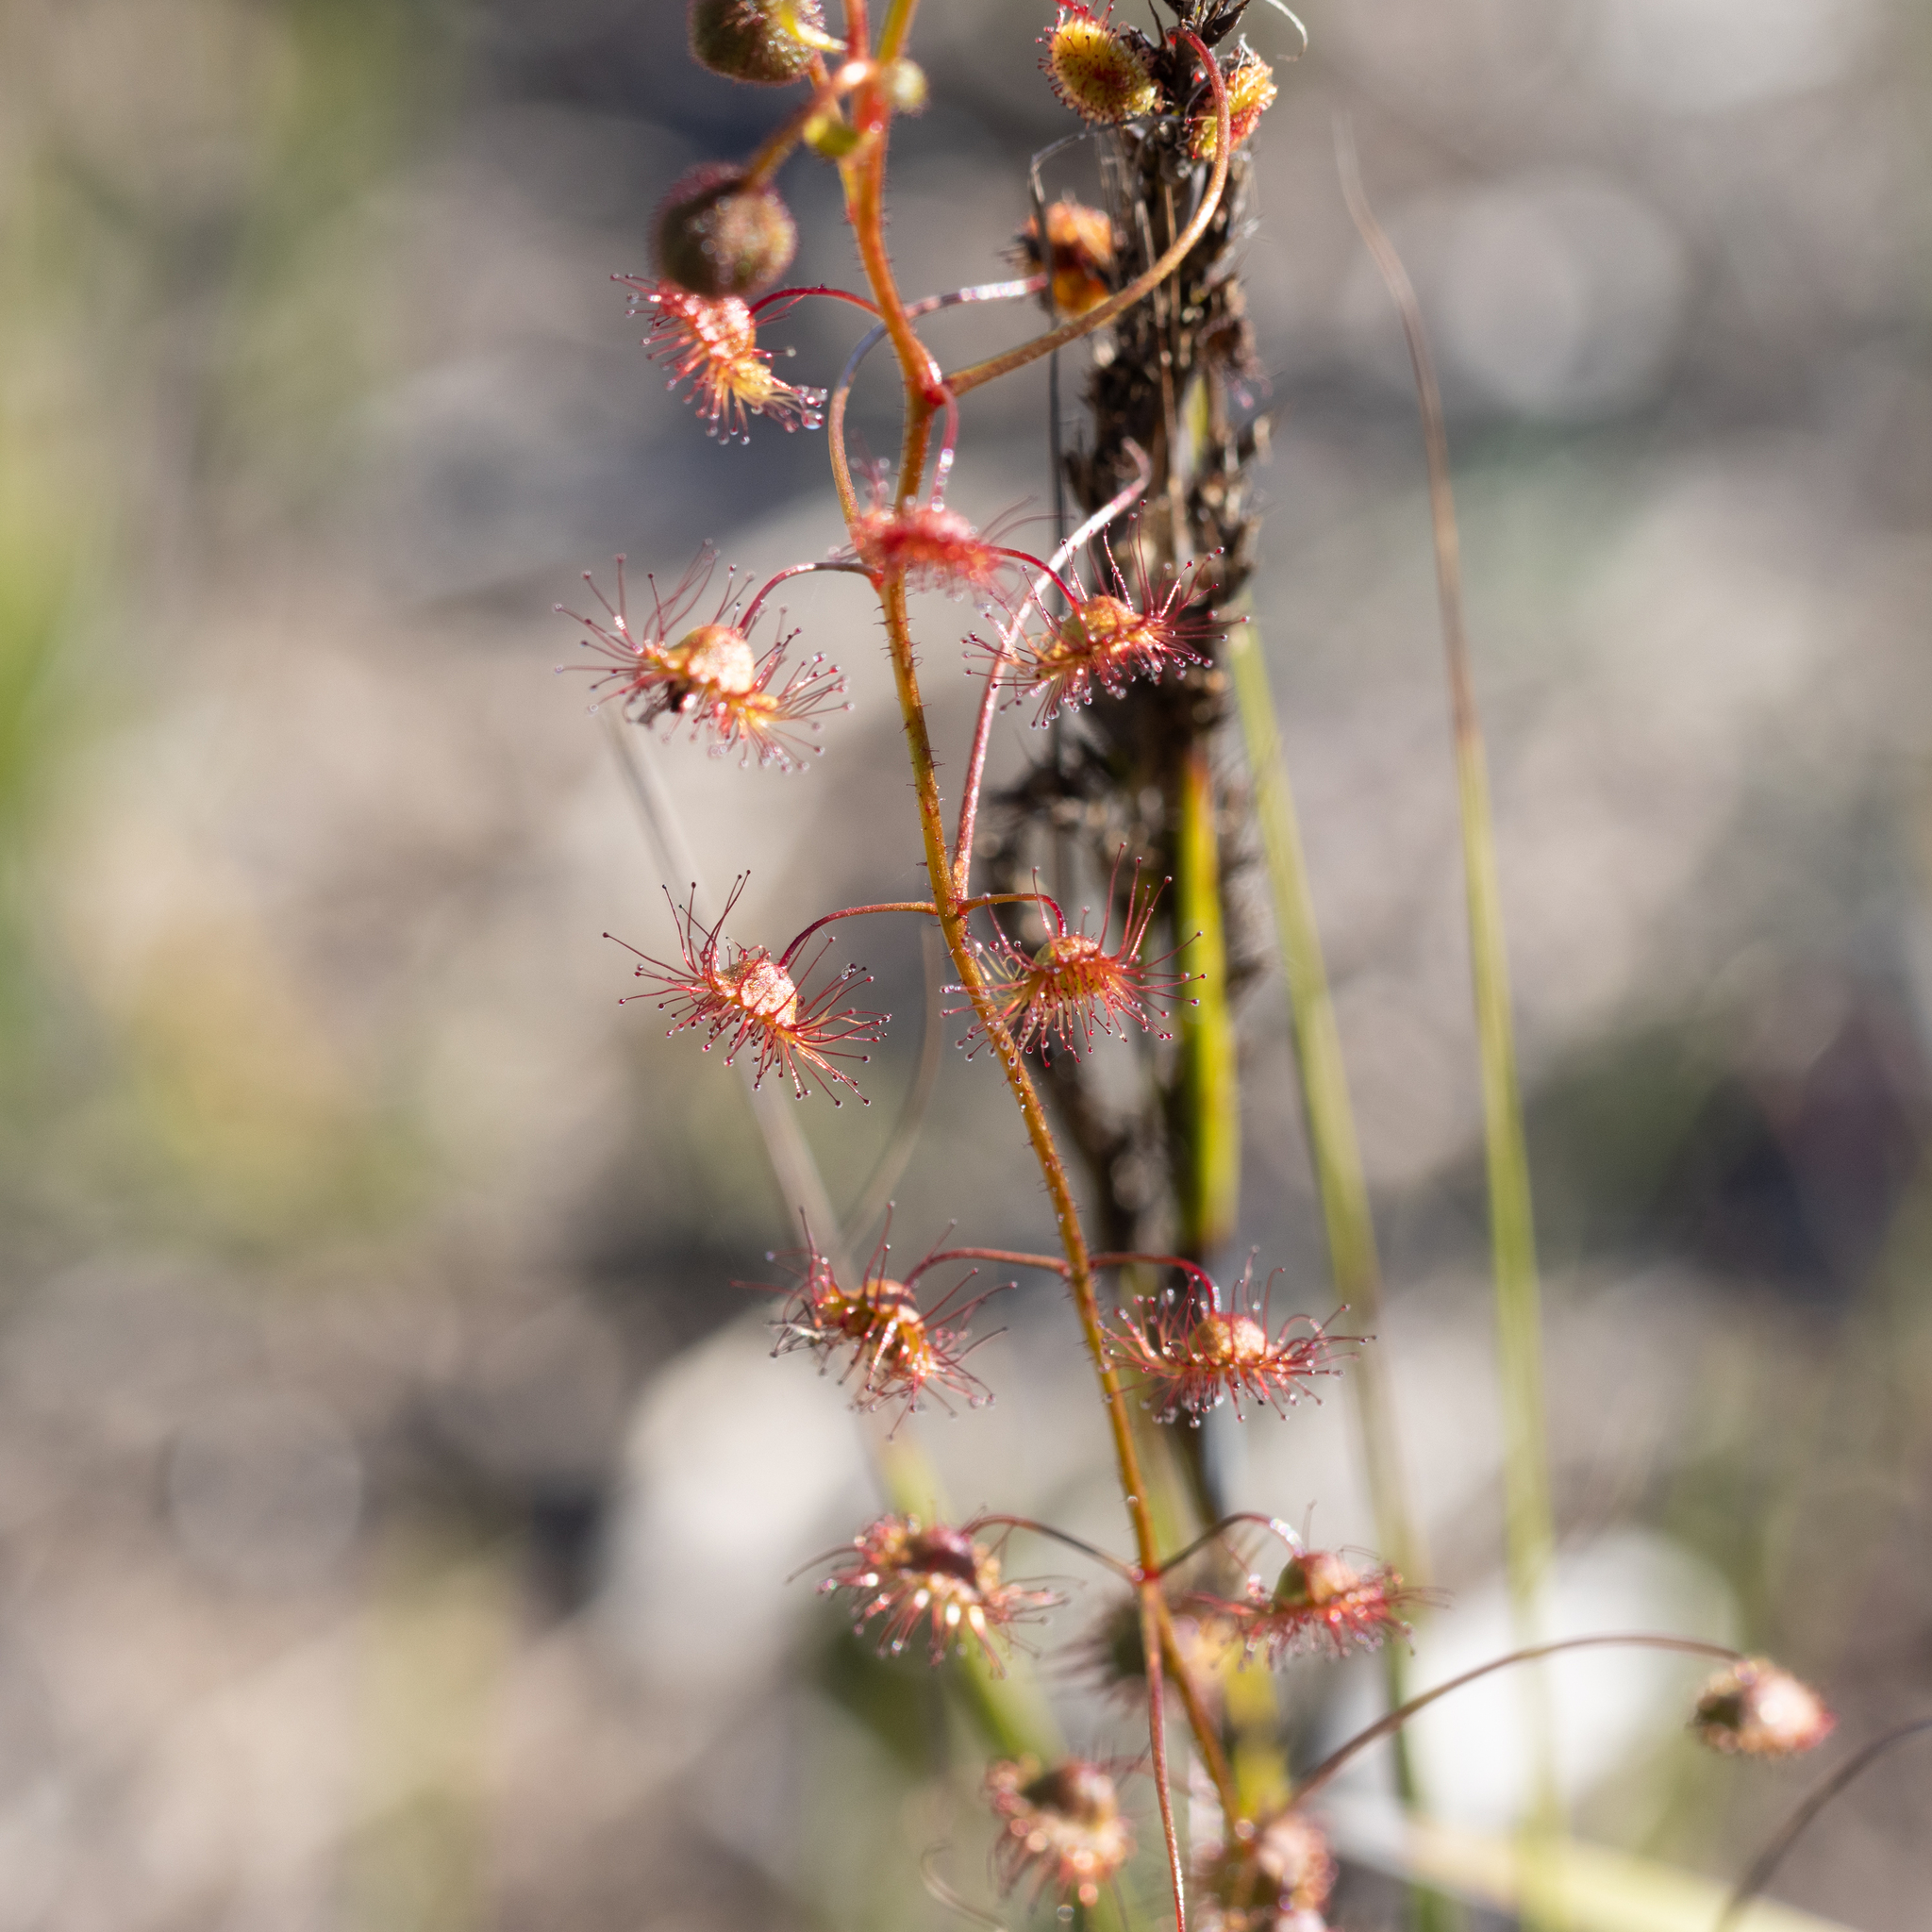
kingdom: Plantae
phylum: Tracheophyta
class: Magnoliopsida
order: Caryophyllales
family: Droseraceae
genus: Drosera
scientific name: Drosera planchonii
